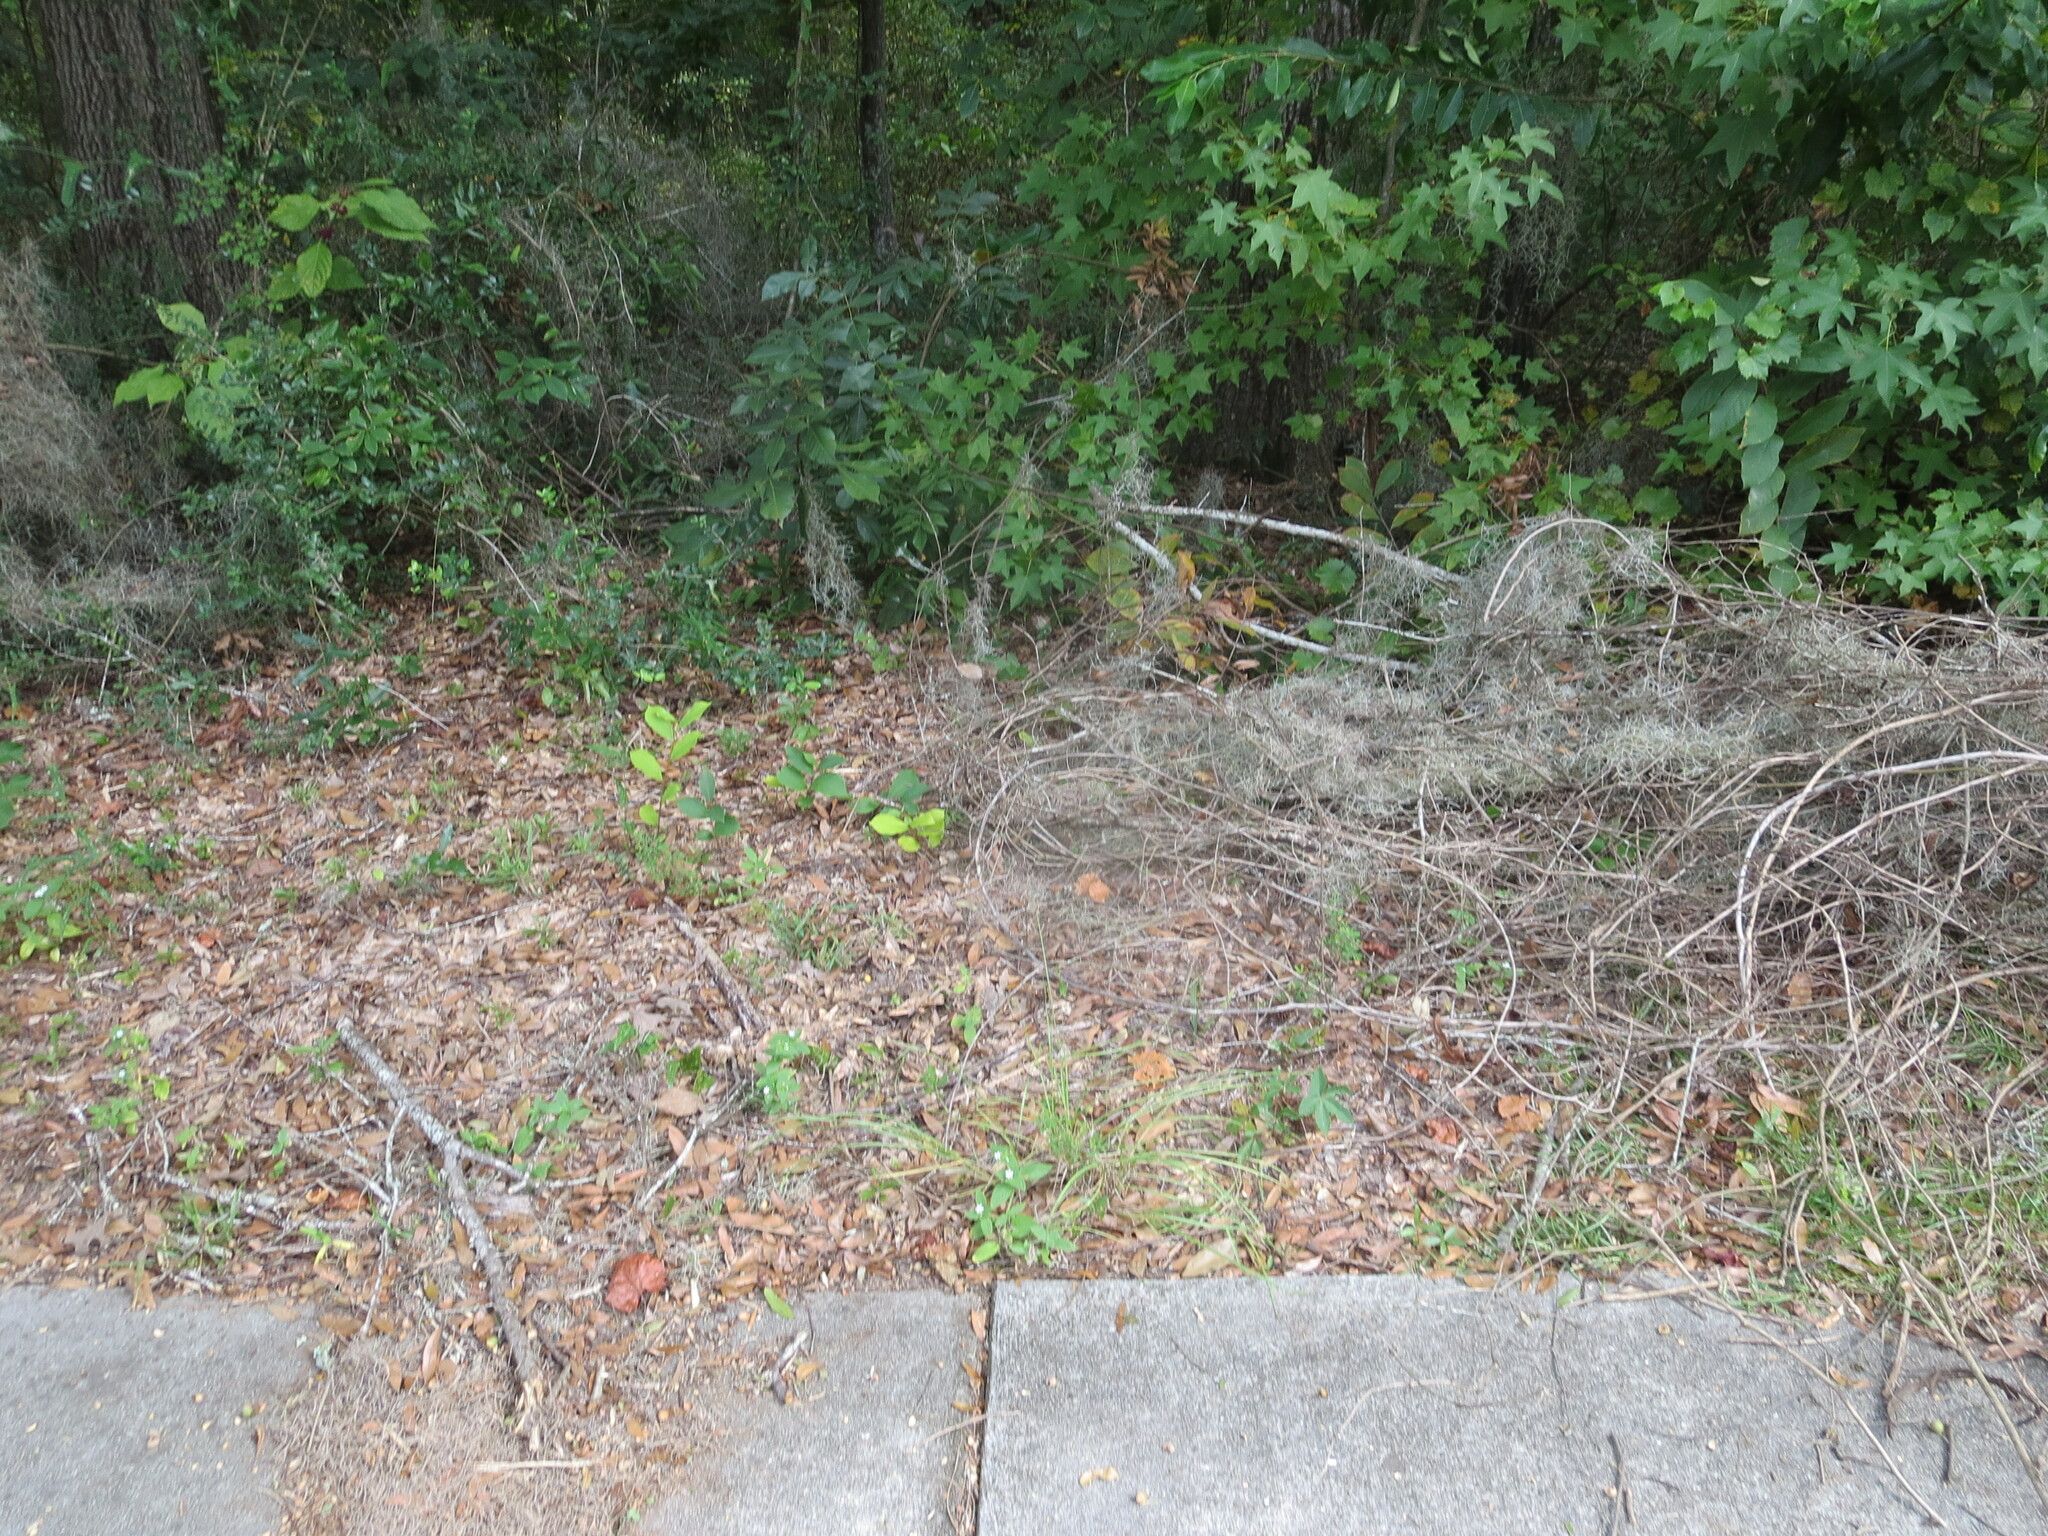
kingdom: Plantae
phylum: Tracheophyta
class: Magnoliopsida
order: Magnoliales
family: Annonaceae
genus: Asimina
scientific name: Asimina parviflora
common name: Dwarf pawpaw
